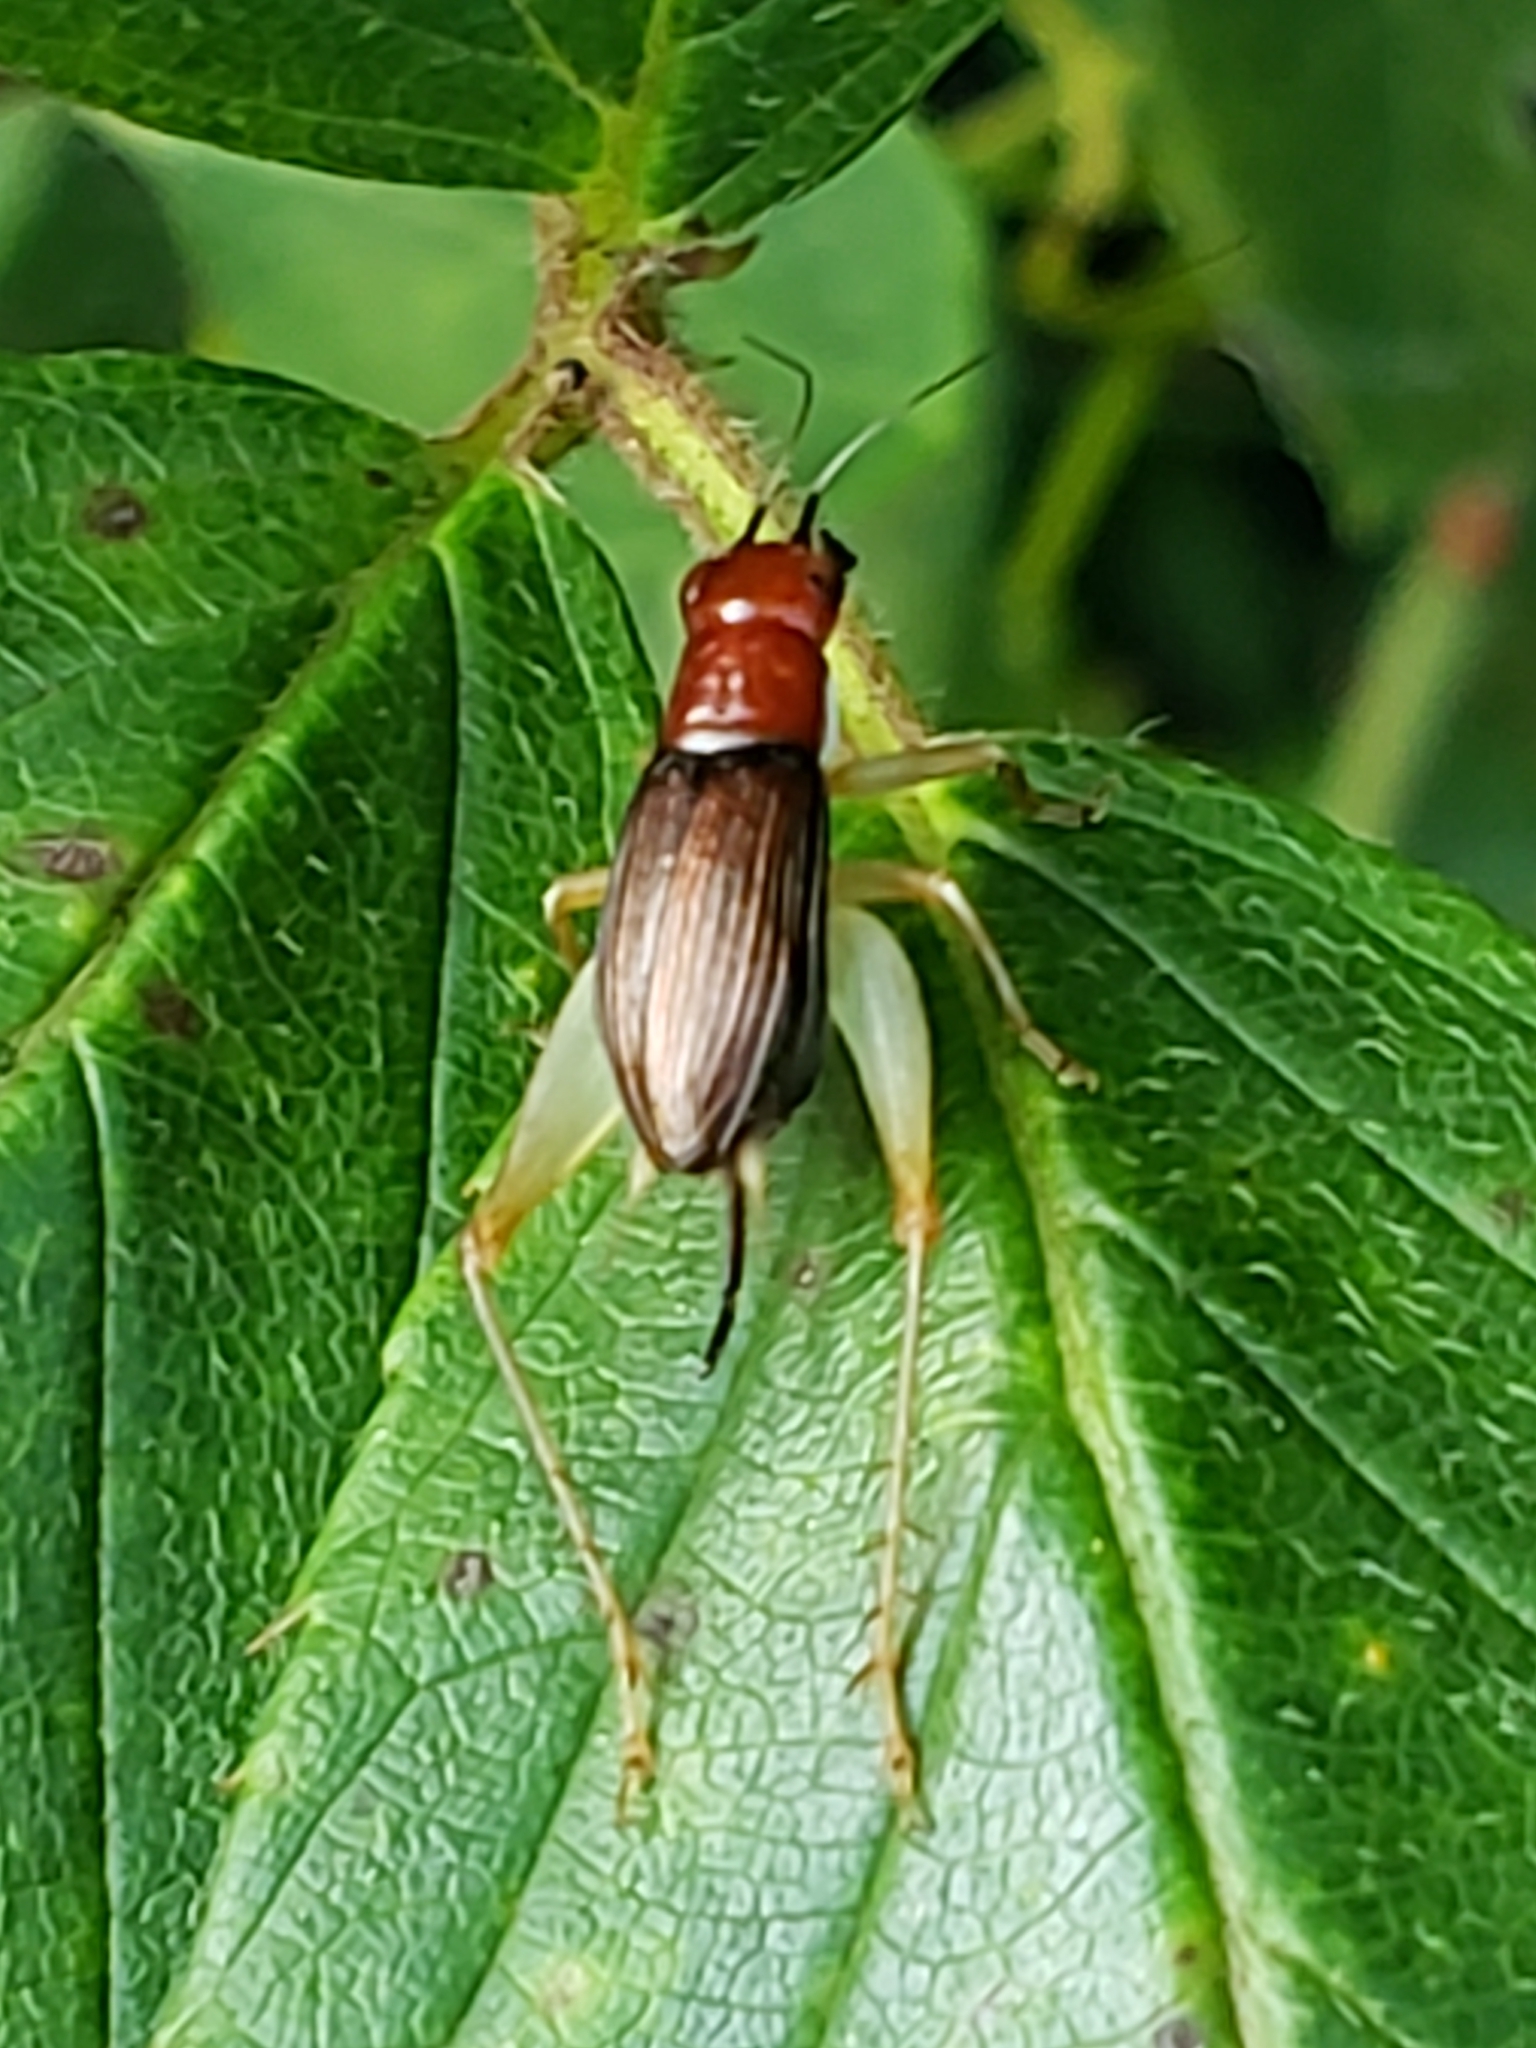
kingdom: Animalia
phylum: Arthropoda
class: Insecta
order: Orthoptera
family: Trigonidiidae
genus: Phyllopalpus
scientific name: Phyllopalpus pulchellus
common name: Handsome trig
